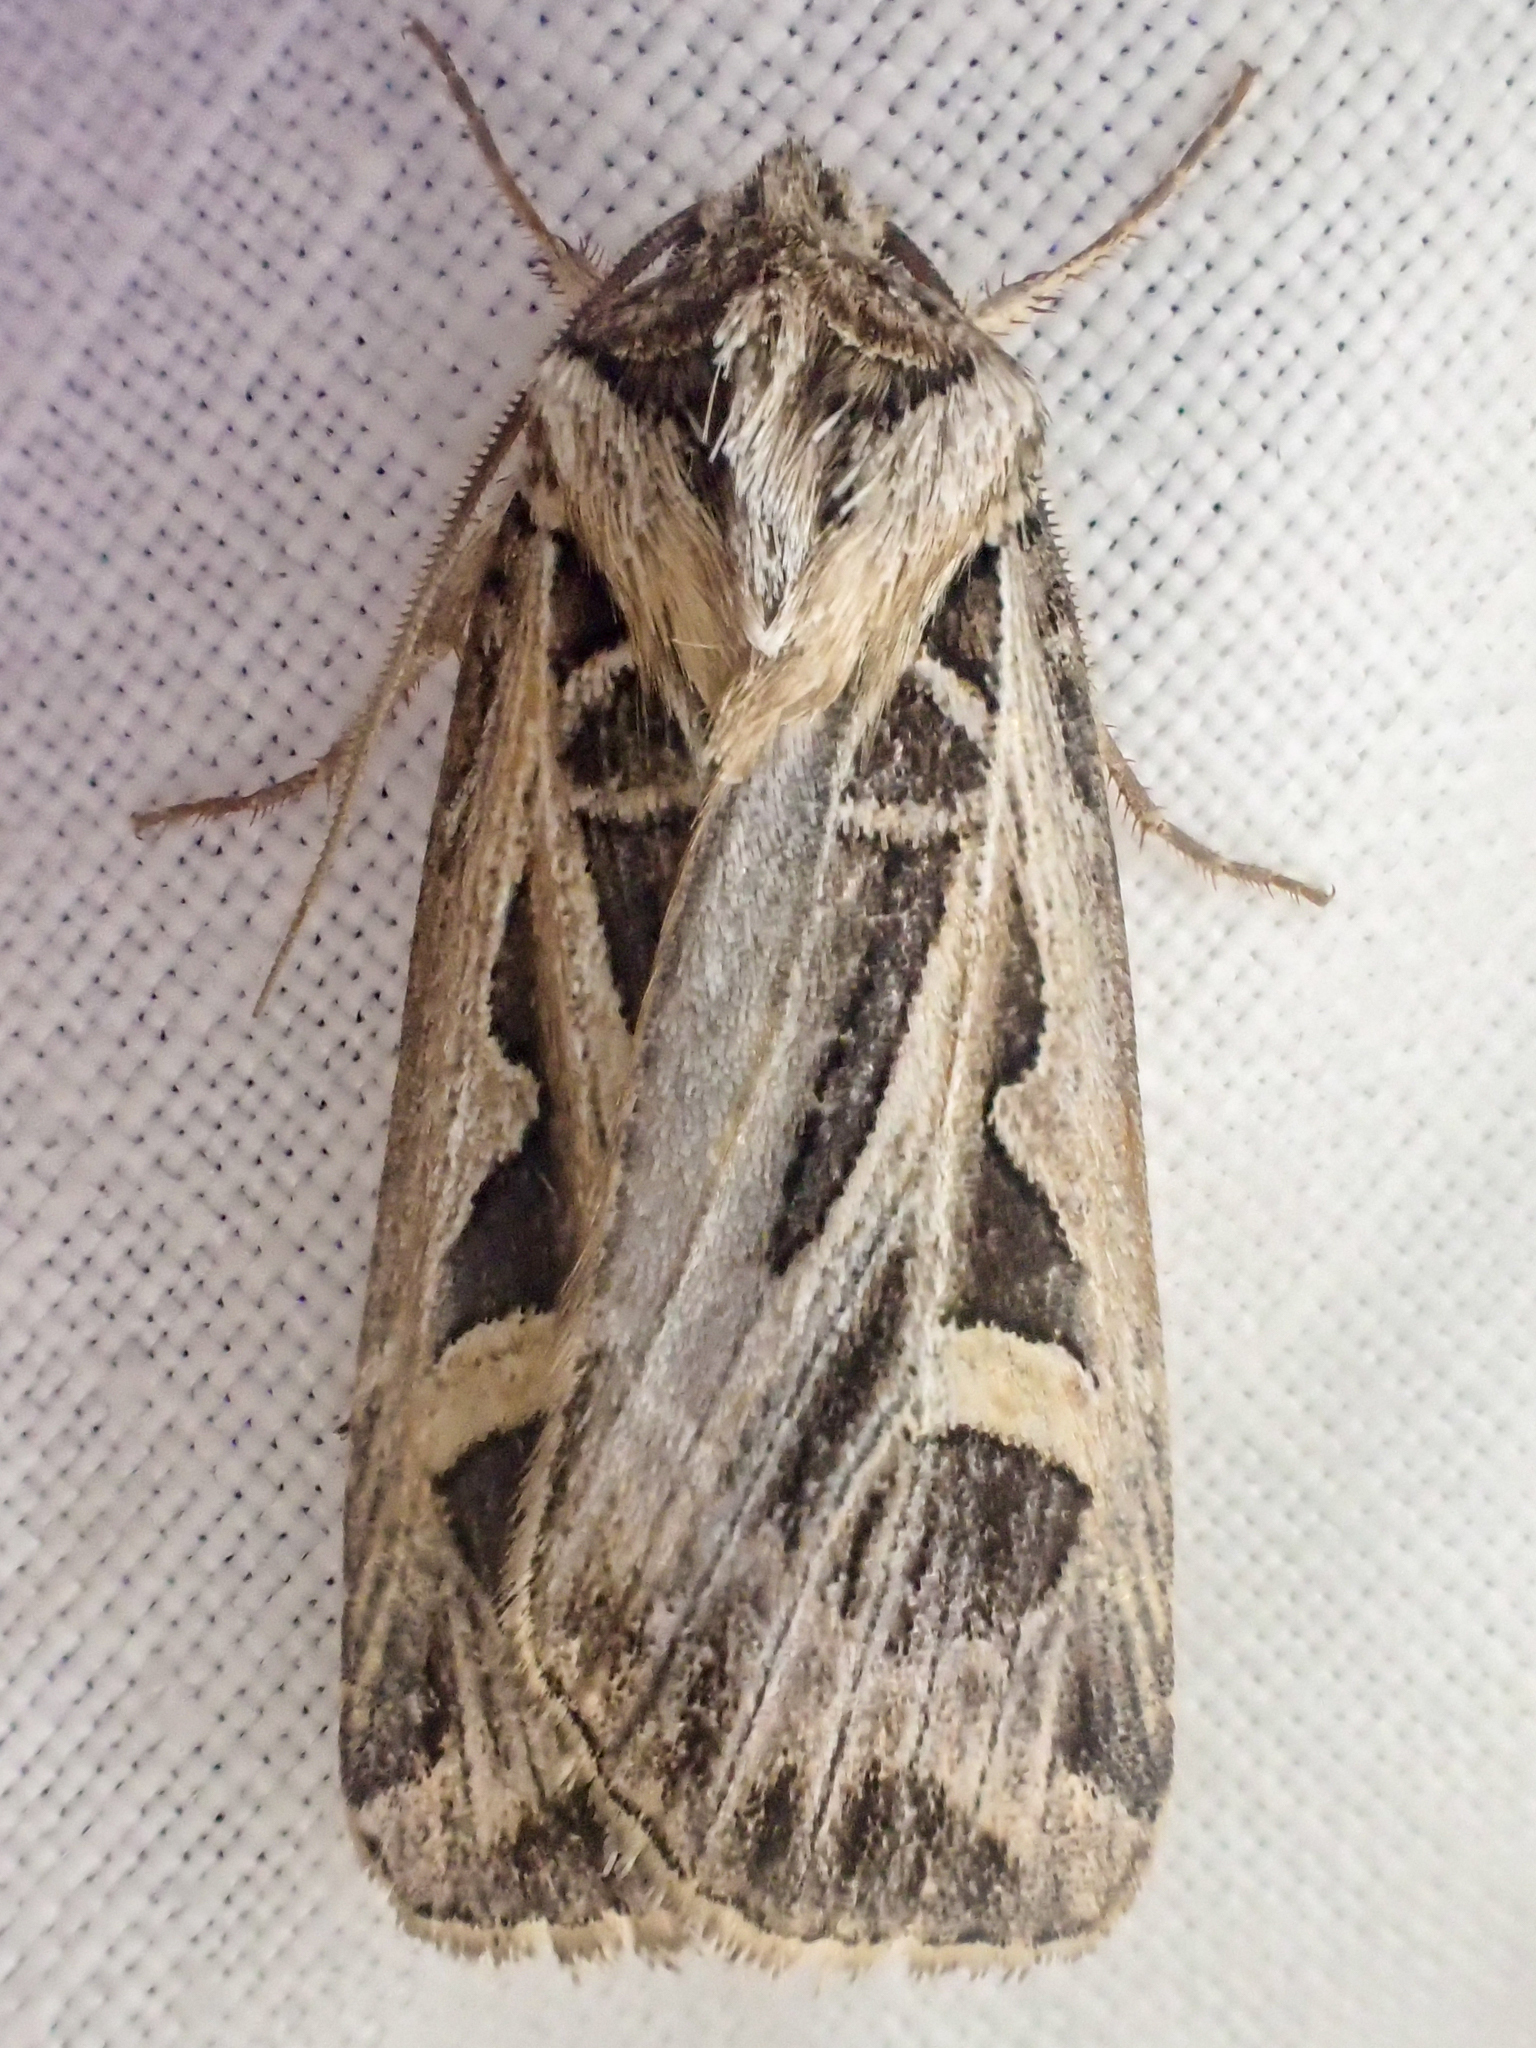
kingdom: Animalia
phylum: Arthropoda
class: Insecta
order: Lepidoptera
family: Noctuidae
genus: Feltia
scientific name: Feltia jaculifera
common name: Dingy cutworm moth
